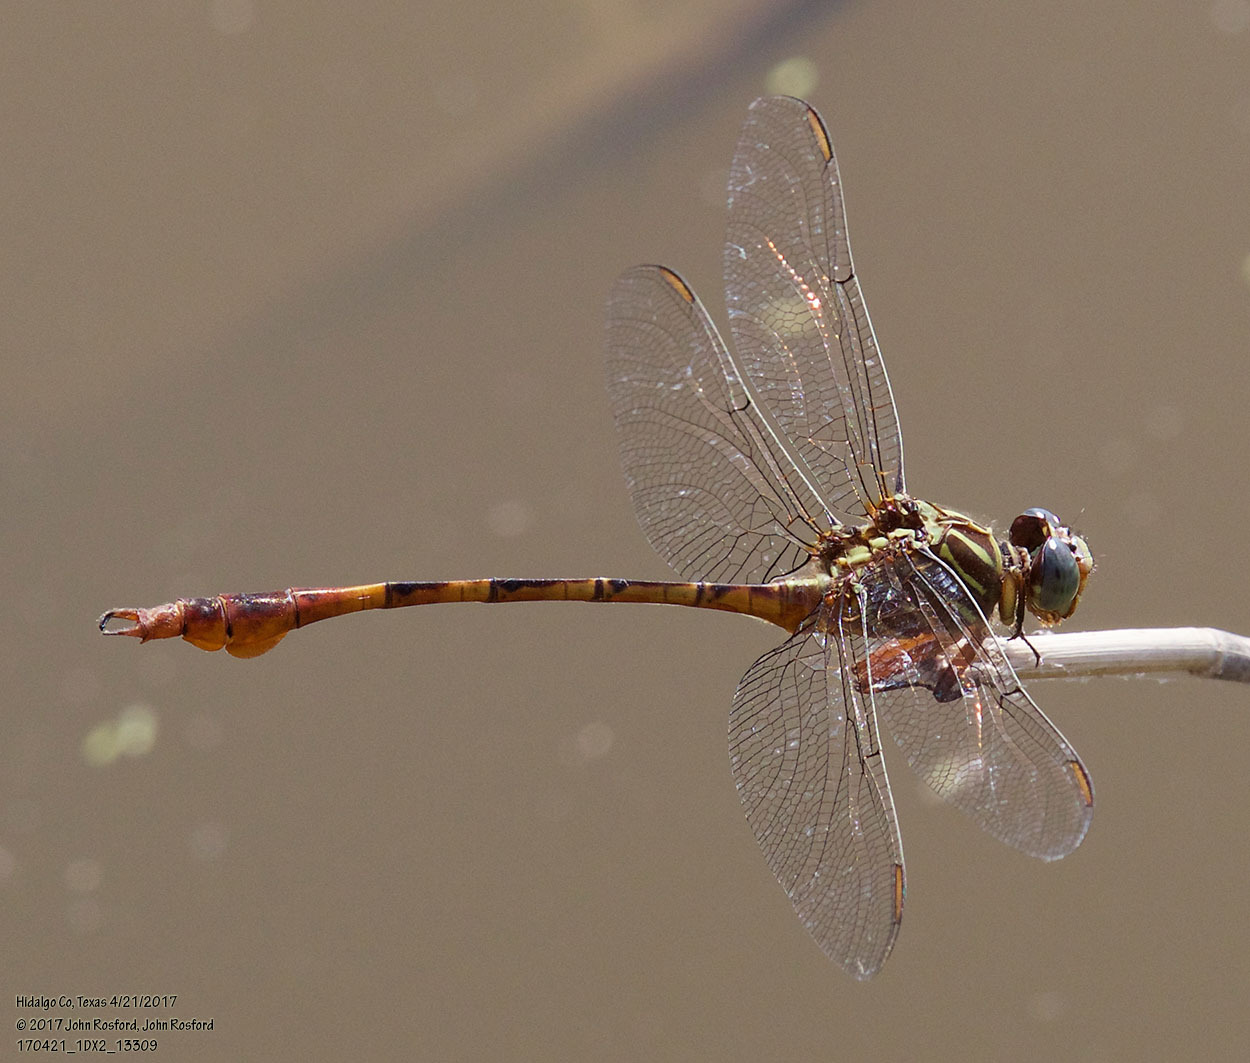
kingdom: Animalia
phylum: Arthropoda
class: Insecta
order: Odonata
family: Gomphidae
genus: Aphylla
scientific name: Aphylla protracta
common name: Narrow-striped forceptail
